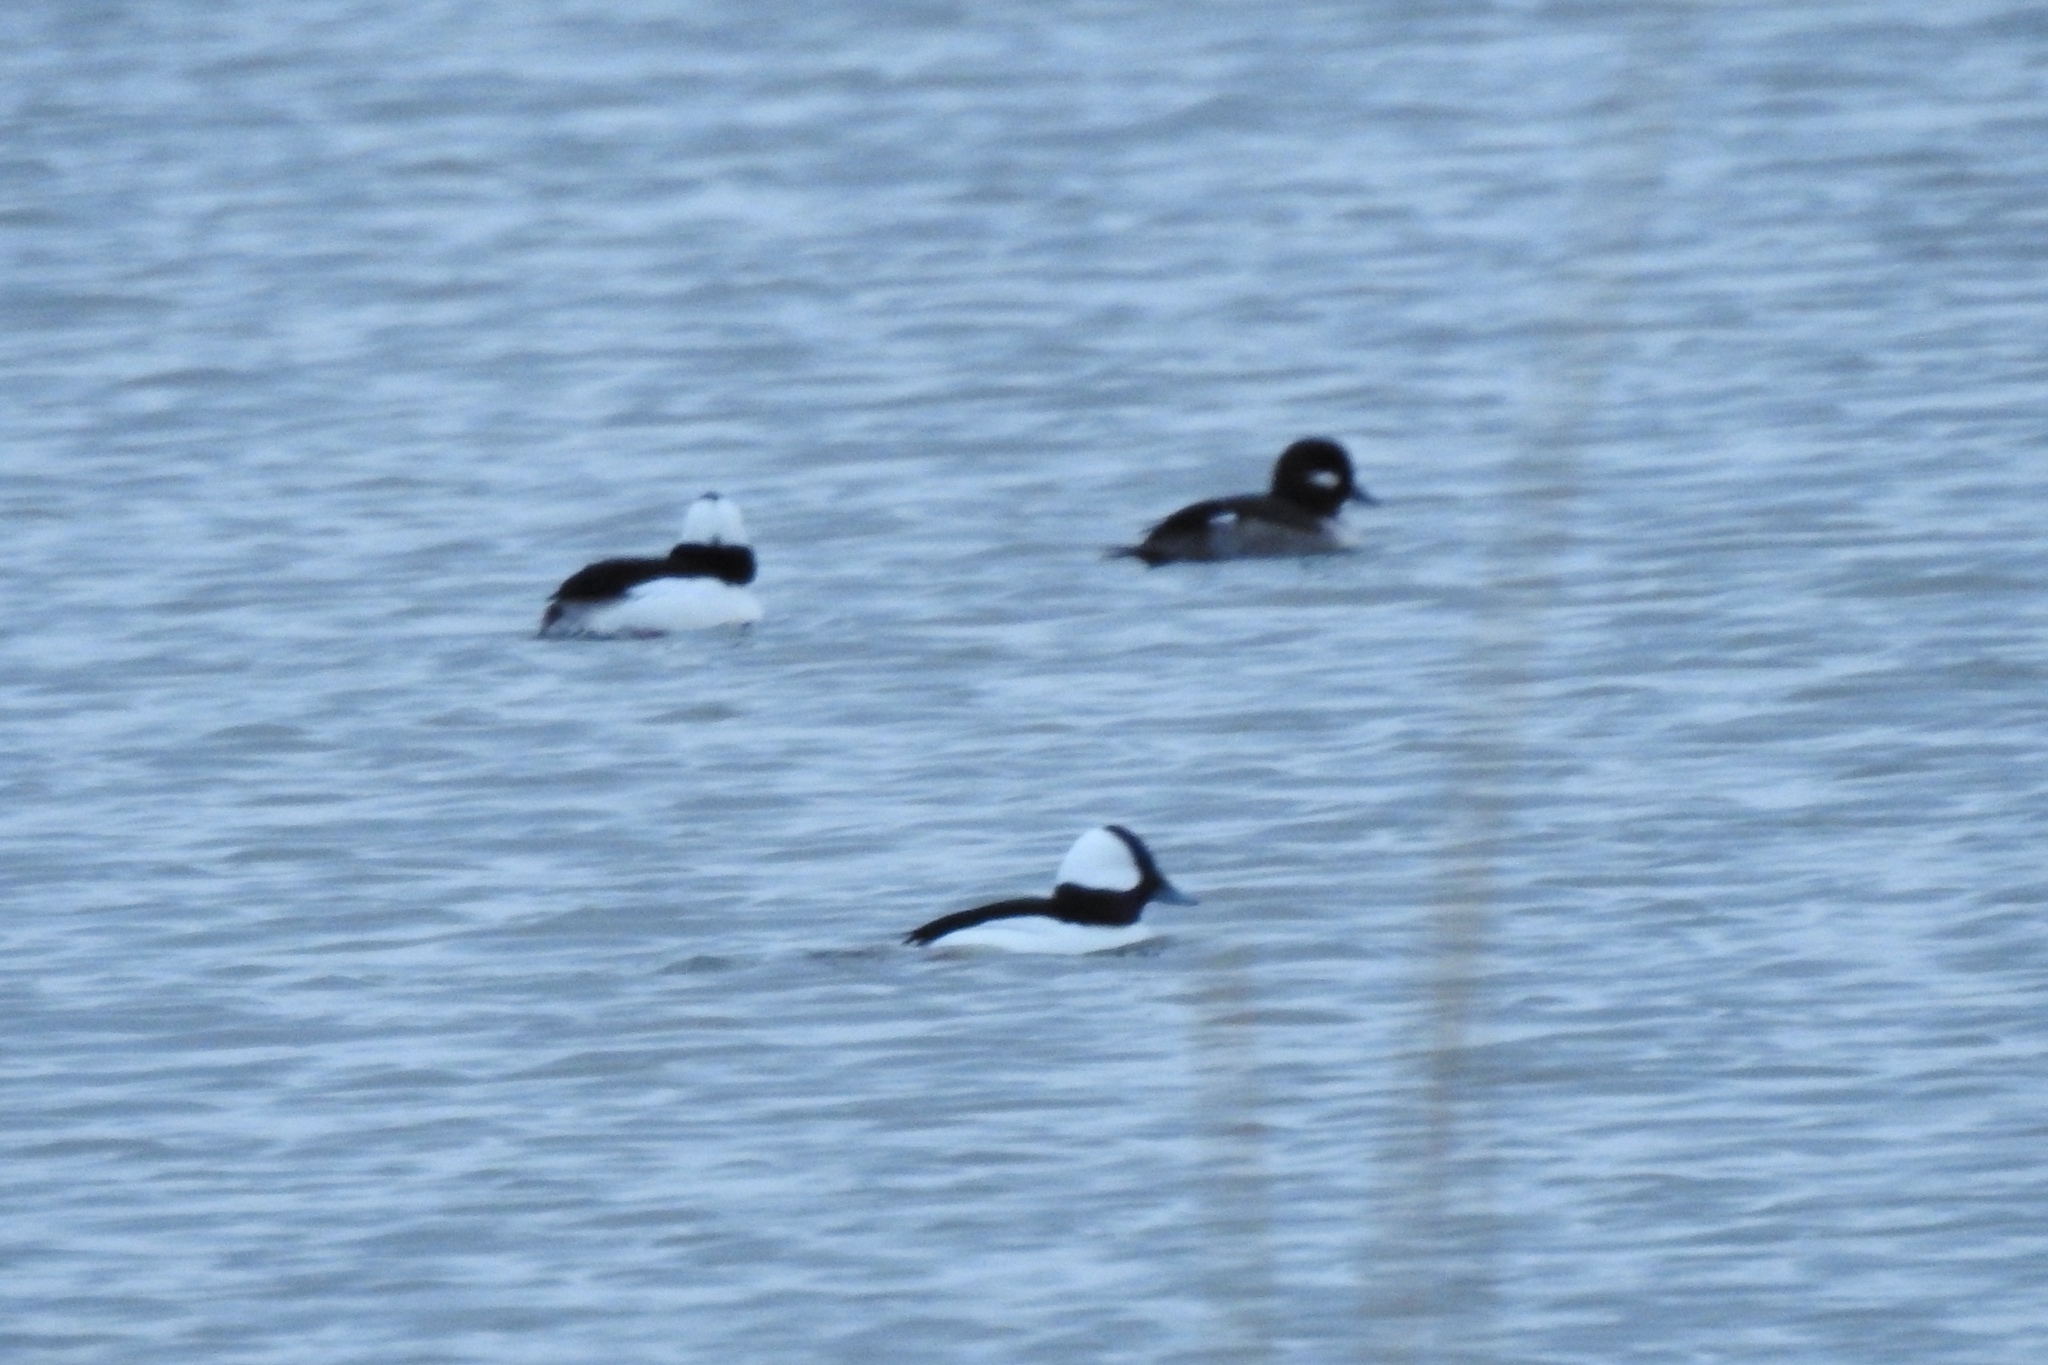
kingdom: Animalia
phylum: Chordata
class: Aves
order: Anseriformes
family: Anatidae
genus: Bucephala
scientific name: Bucephala albeola
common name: Bufflehead
